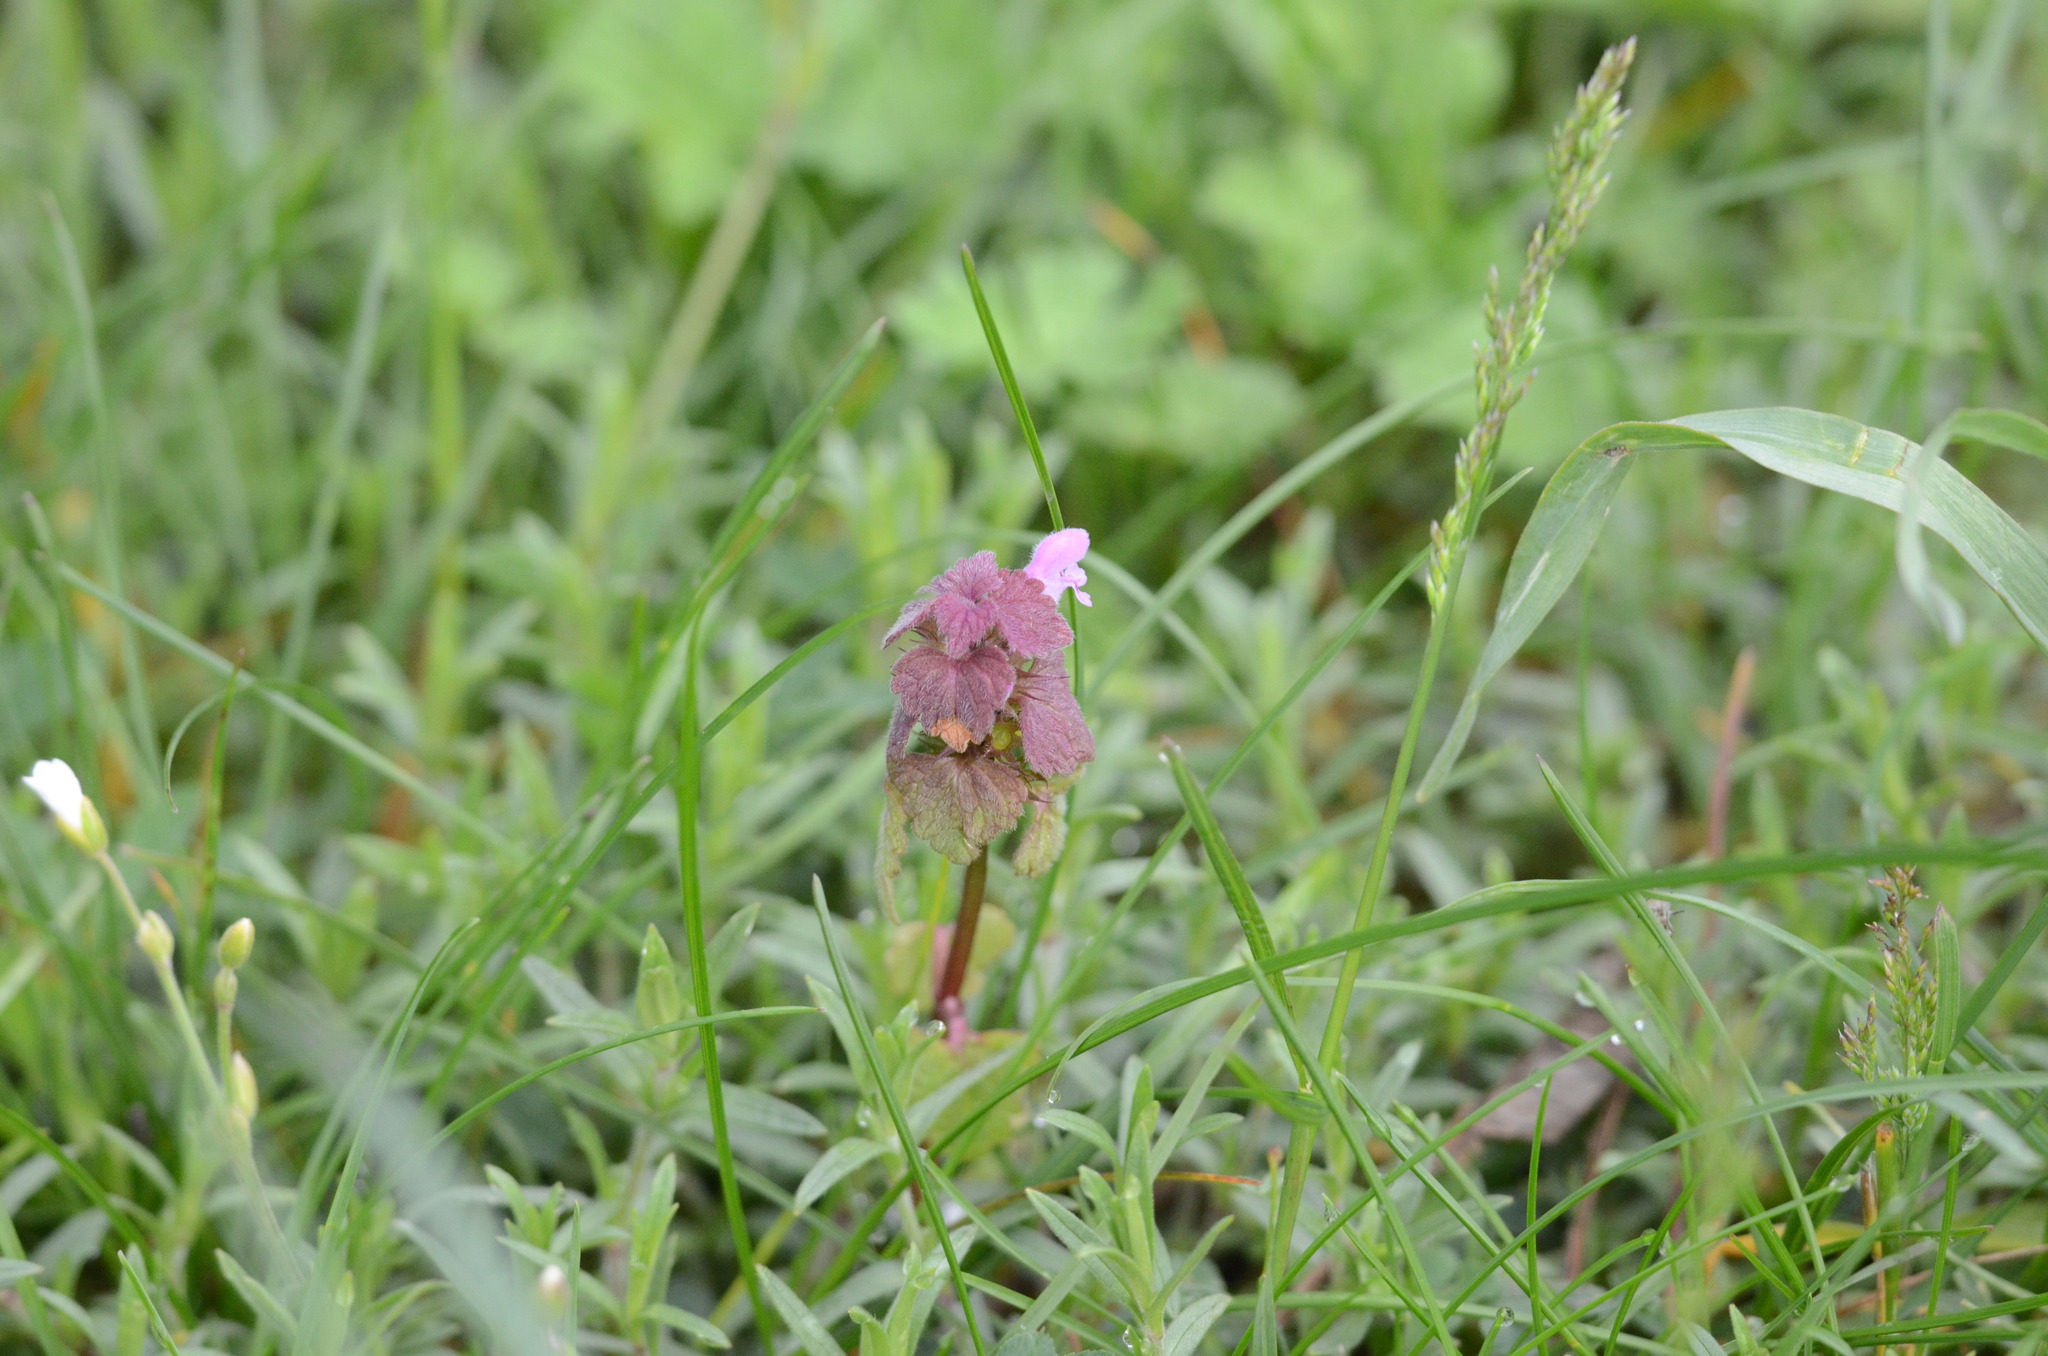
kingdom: Plantae
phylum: Tracheophyta
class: Magnoliopsida
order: Lamiales
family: Lamiaceae
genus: Lamium
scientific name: Lamium purpureum
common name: Red dead-nettle
